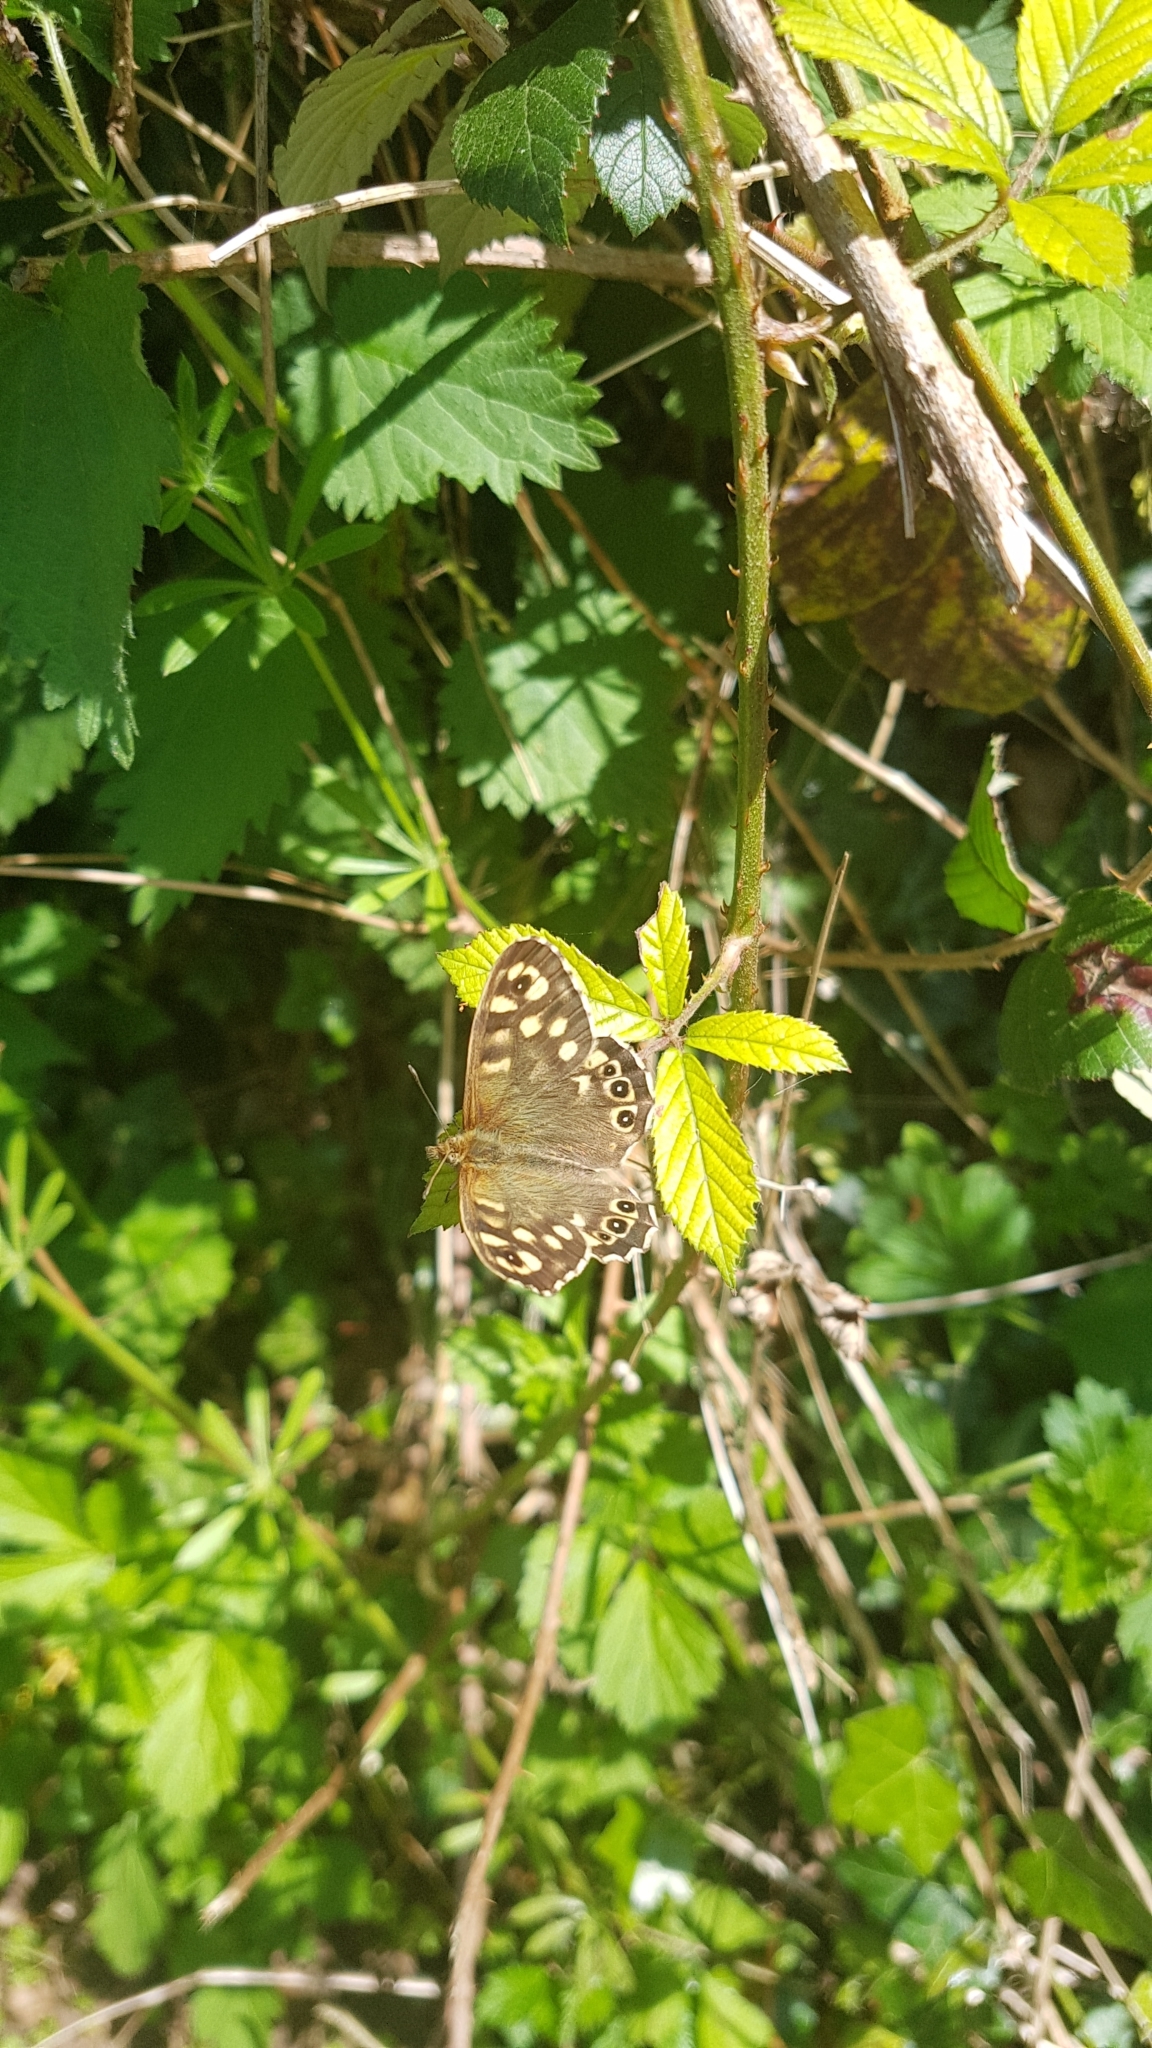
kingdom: Animalia
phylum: Arthropoda
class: Insecta
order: Lepidoptera
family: Nymphalidae
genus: Pararge
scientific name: Pararge aegeria
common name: Speckled wood
